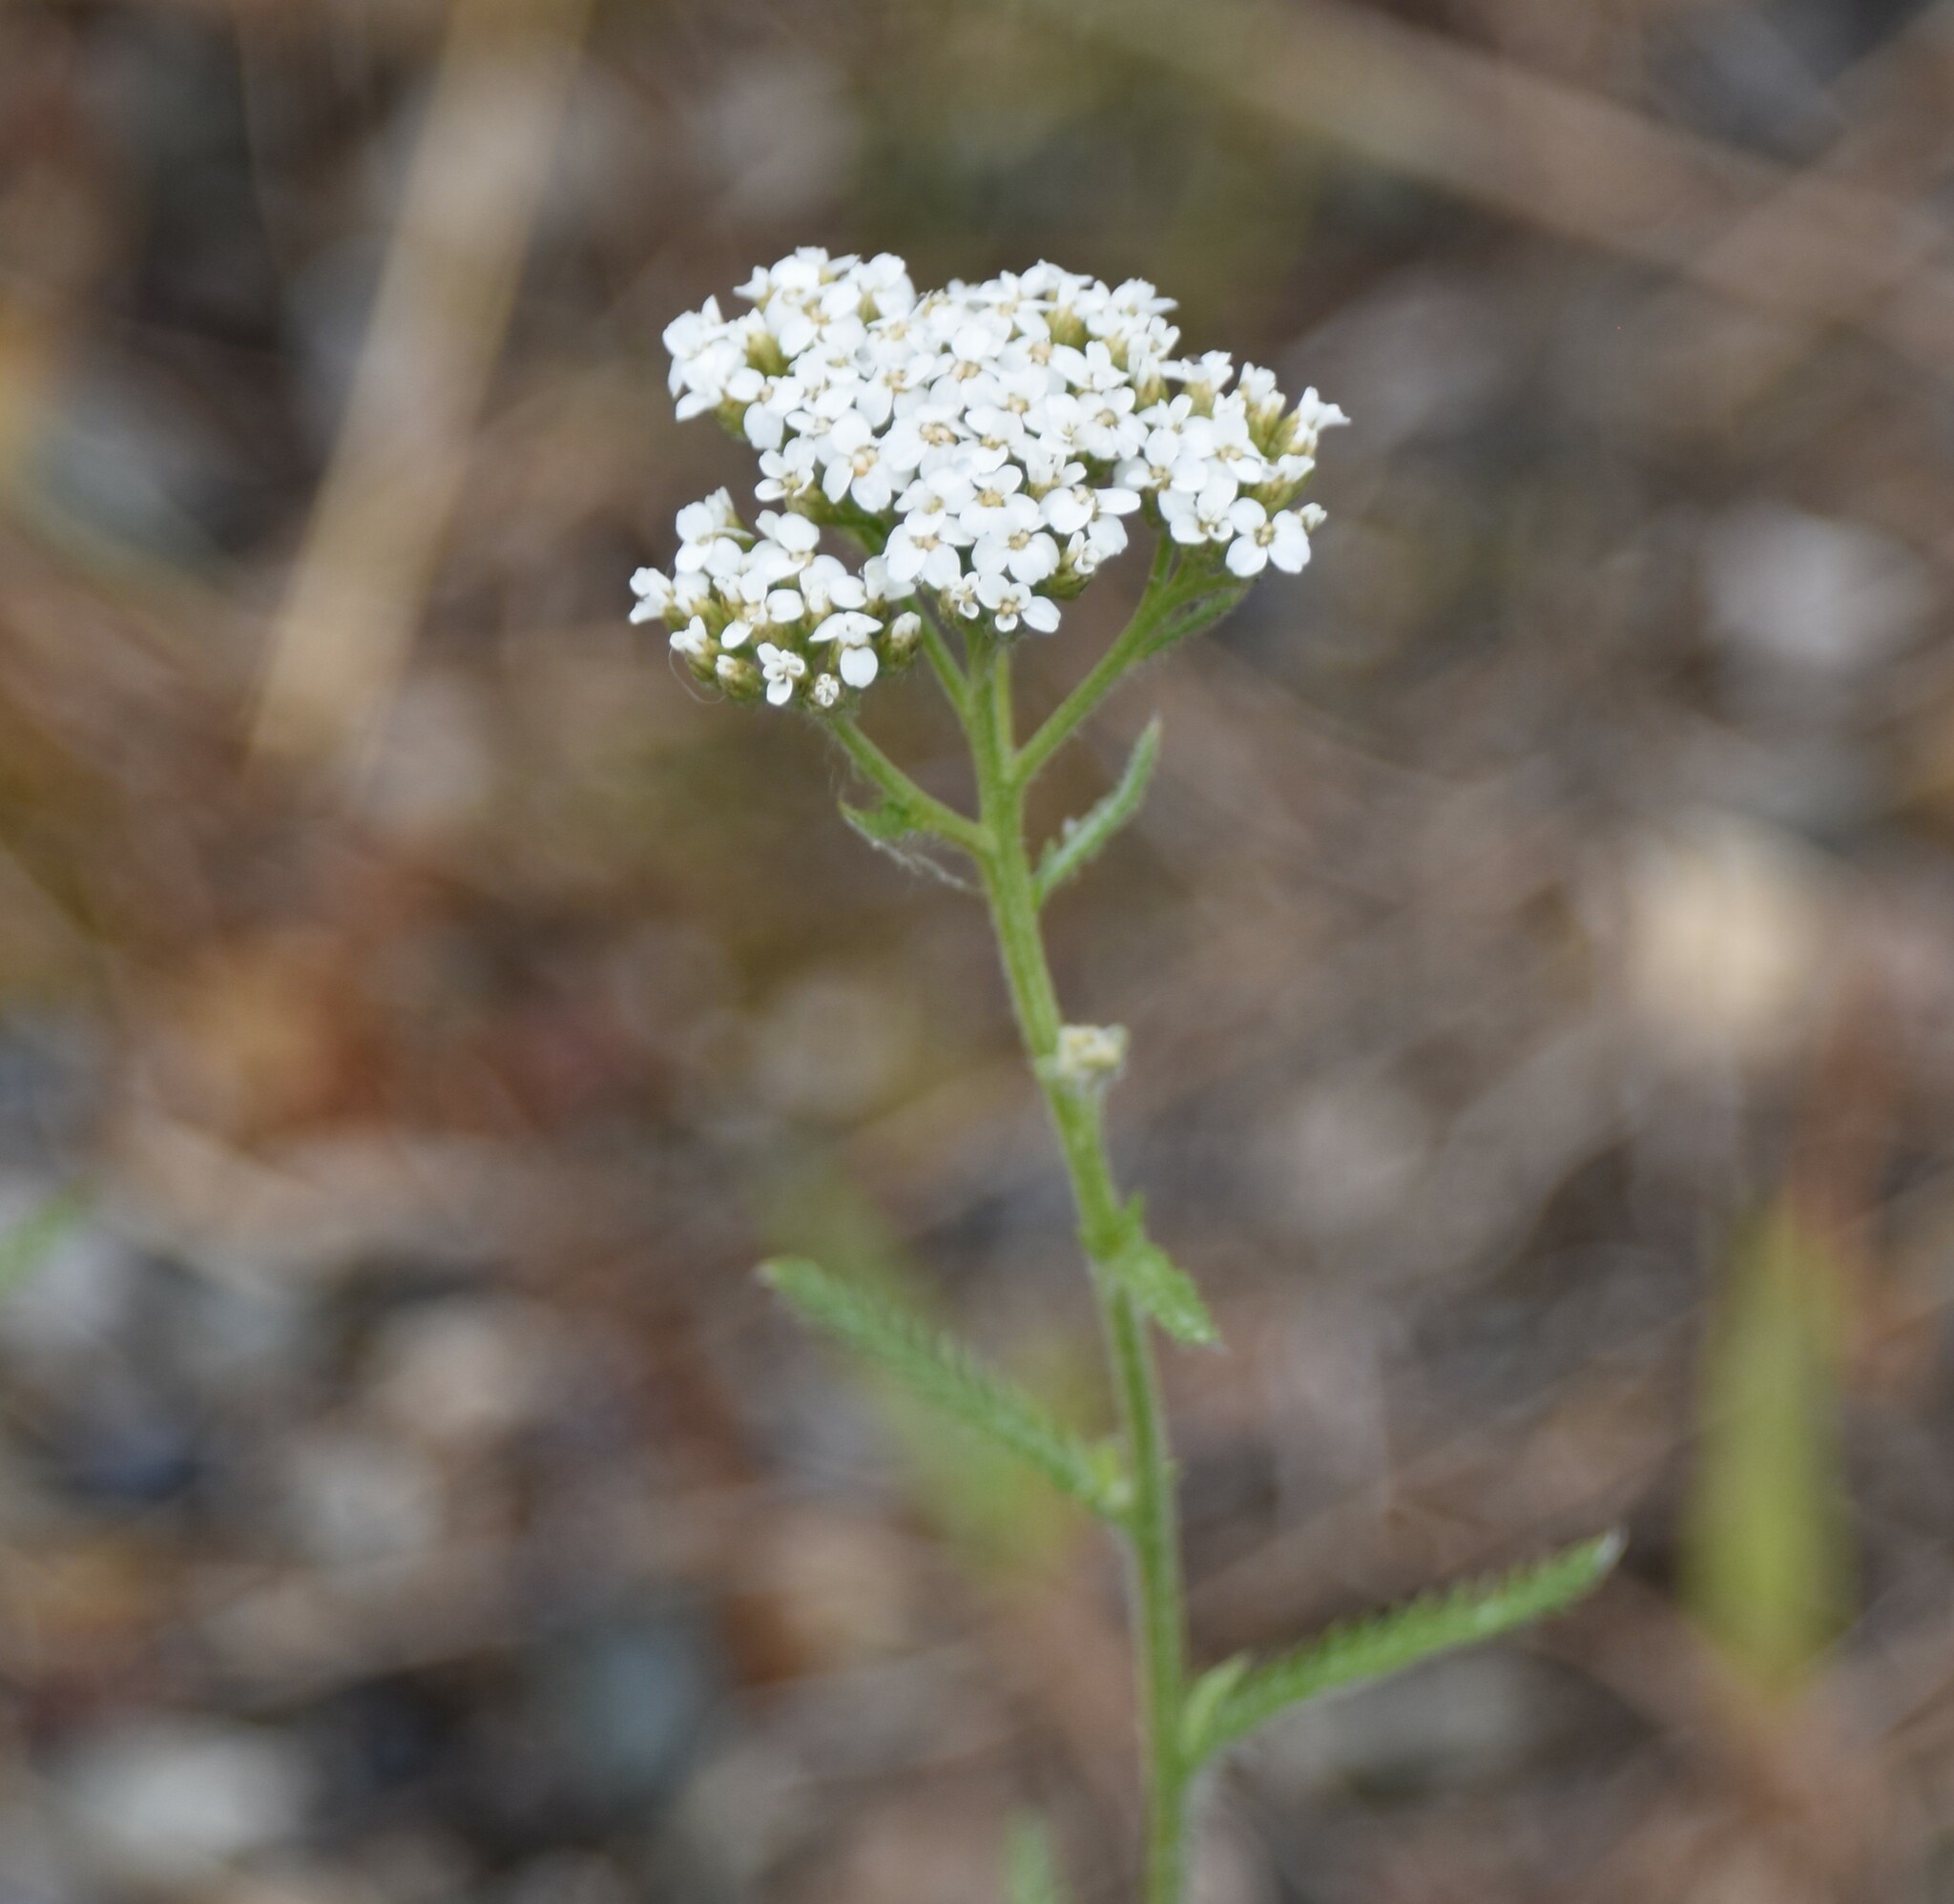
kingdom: Plantae
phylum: Tracheophyta
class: Magnoliopsida
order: Asterales
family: Asteraceae
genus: Achillea
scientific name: Achillea millefolium
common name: Yarrow
